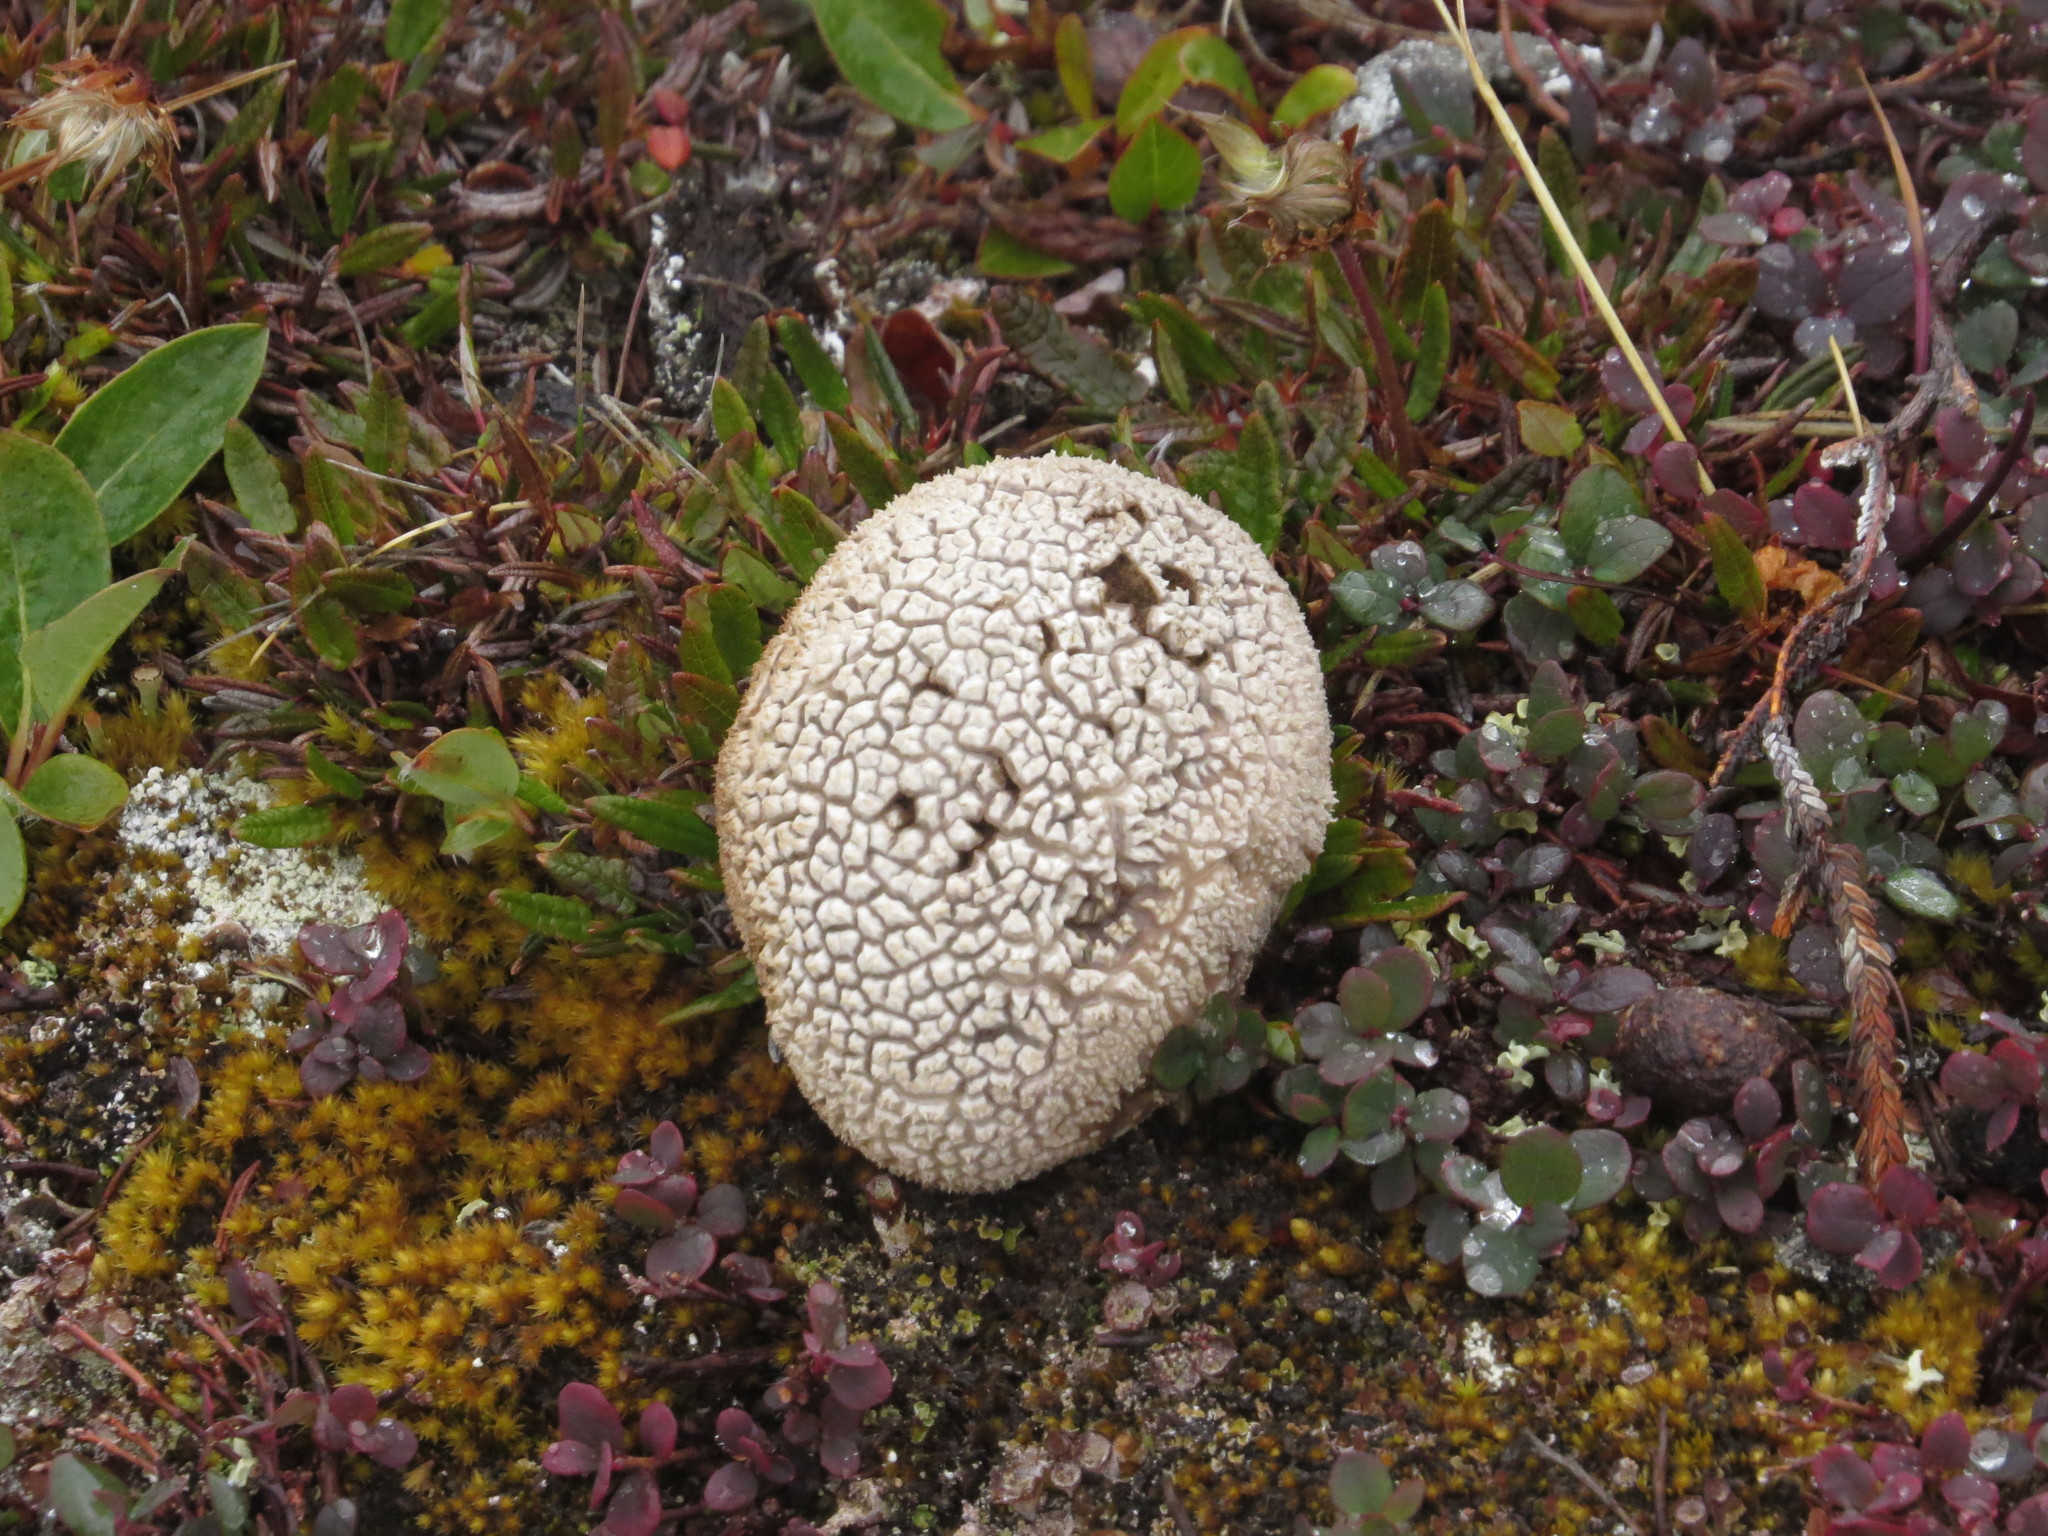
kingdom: Fungi
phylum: Basidiomycota
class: Agaricomycetes
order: Boletales
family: Sclerodermataceae
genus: Scleroderma
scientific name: Scleroderma citrinum
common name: Common earthball
